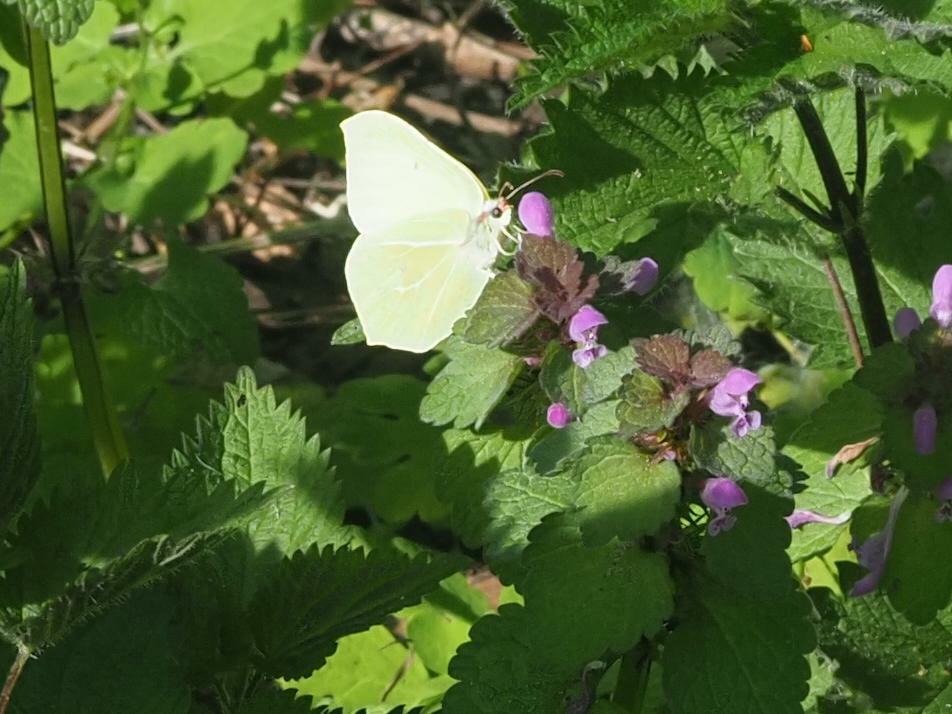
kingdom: Animalia
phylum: Arthropoda
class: Insecta
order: Lepidoptera
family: Pieridae
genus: Gonepteryx
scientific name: Gonepteryx rhamni
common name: Brimstone
